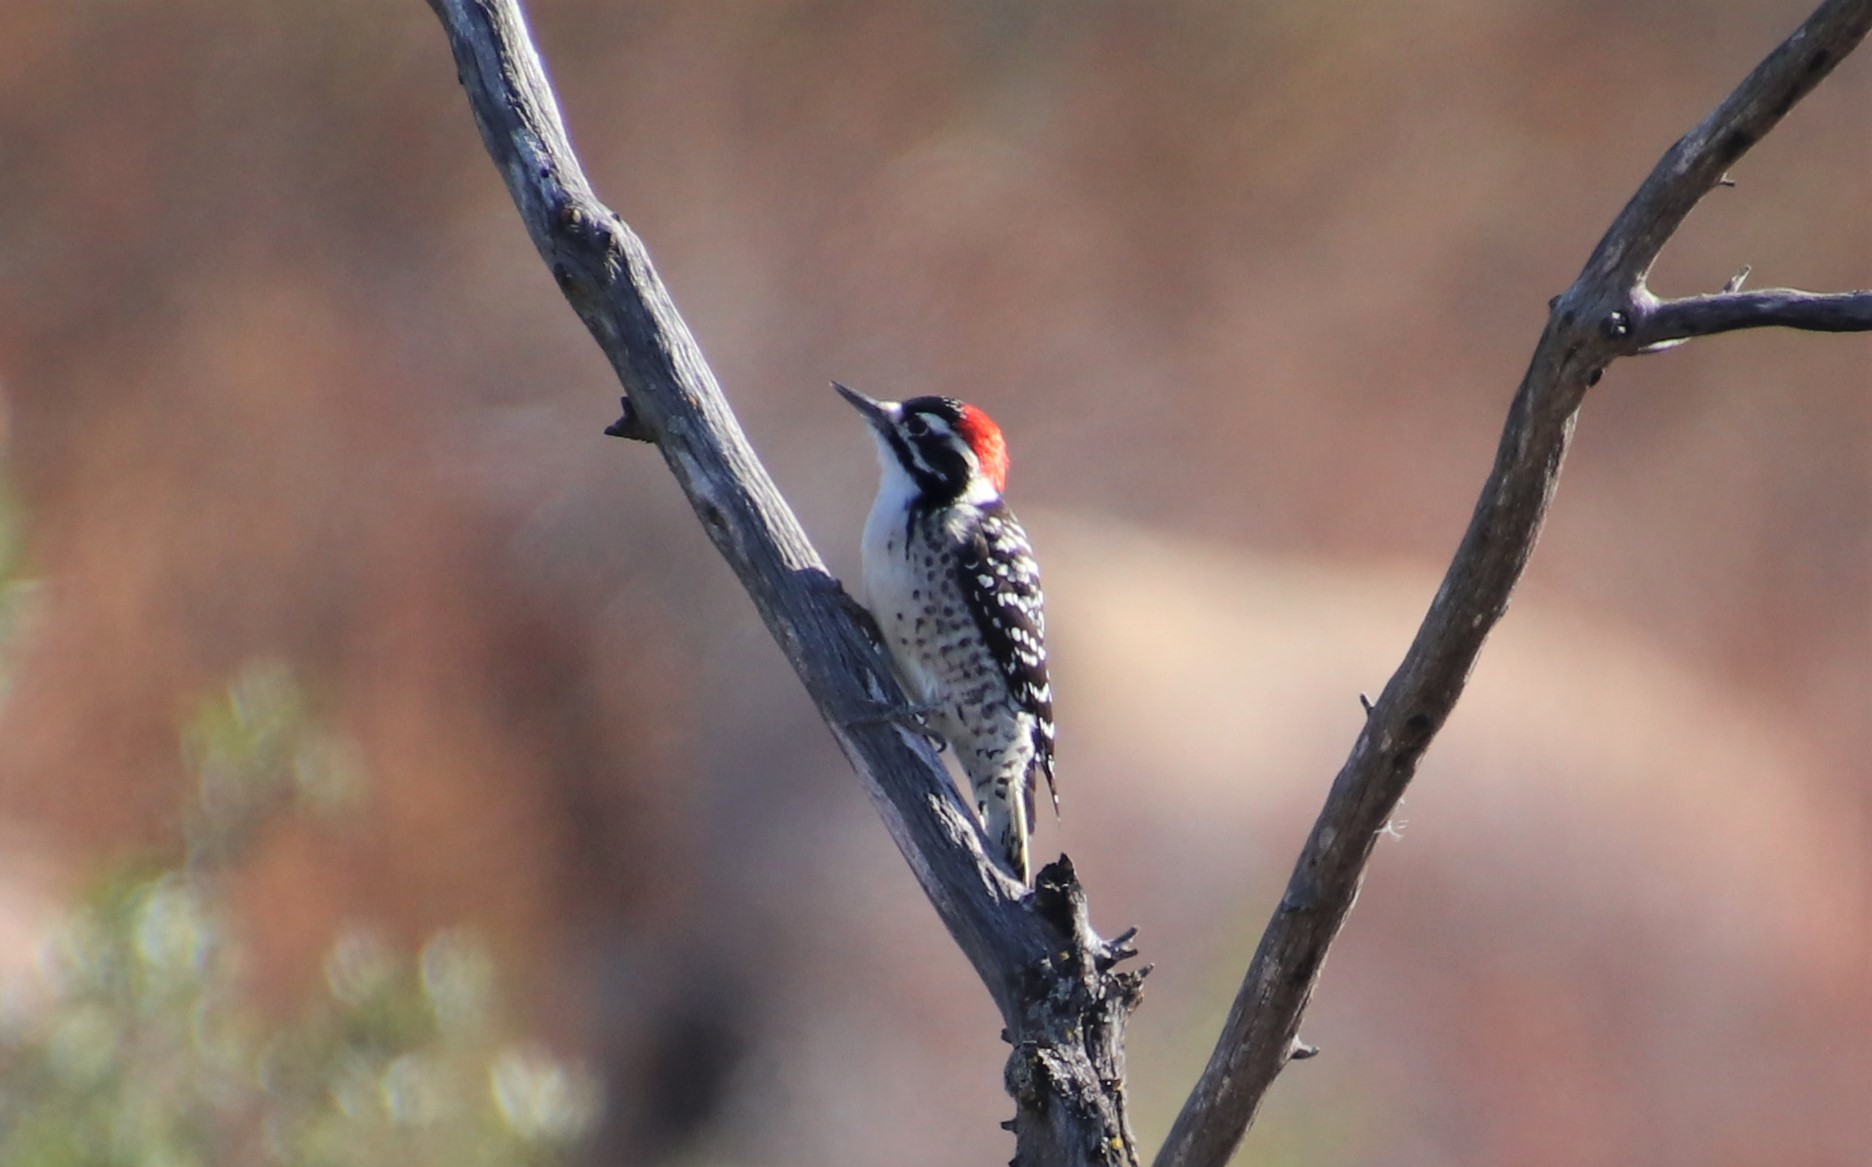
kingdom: Animalia
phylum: Chordata
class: Aves
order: Piciformes
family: Picidae
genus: Dryobates
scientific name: Dryobates nuttallii
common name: Nuttall's woodpecker
